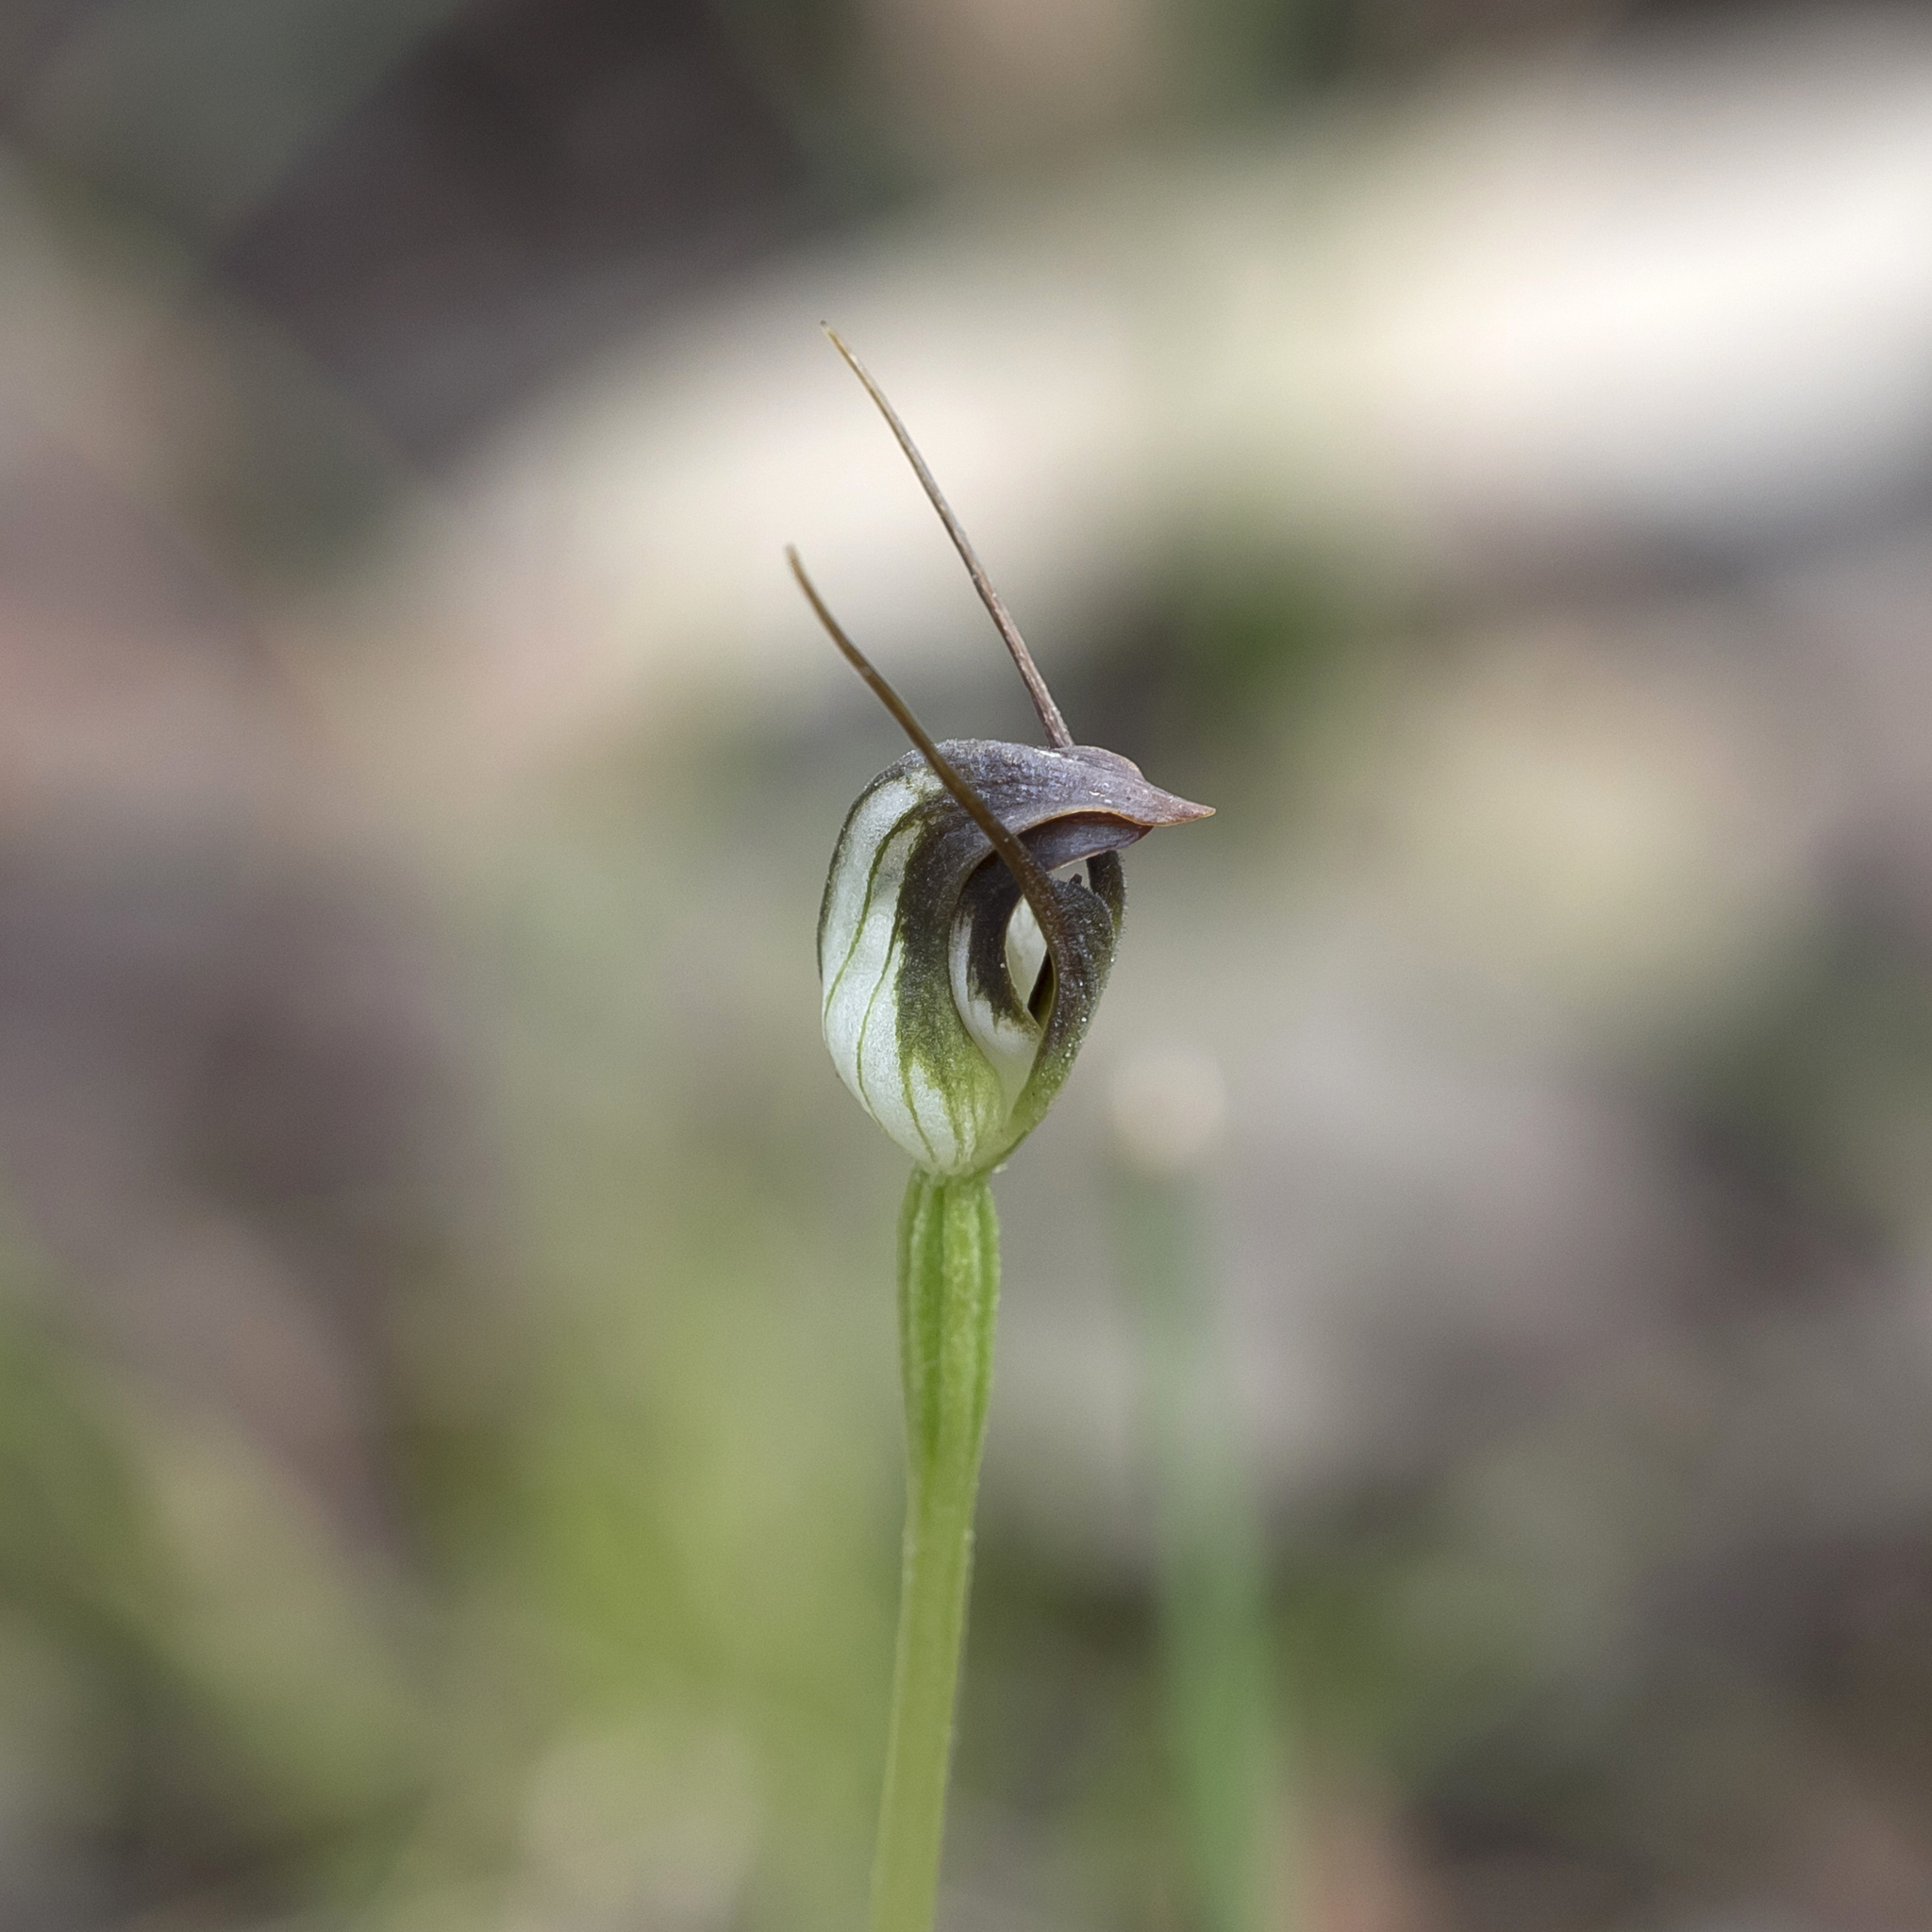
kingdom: Plantae
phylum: Tracheophyta
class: Liliopsida
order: Asparagales
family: Orchidaceae
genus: Pterostylis
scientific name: Pterostylis pedunculata
